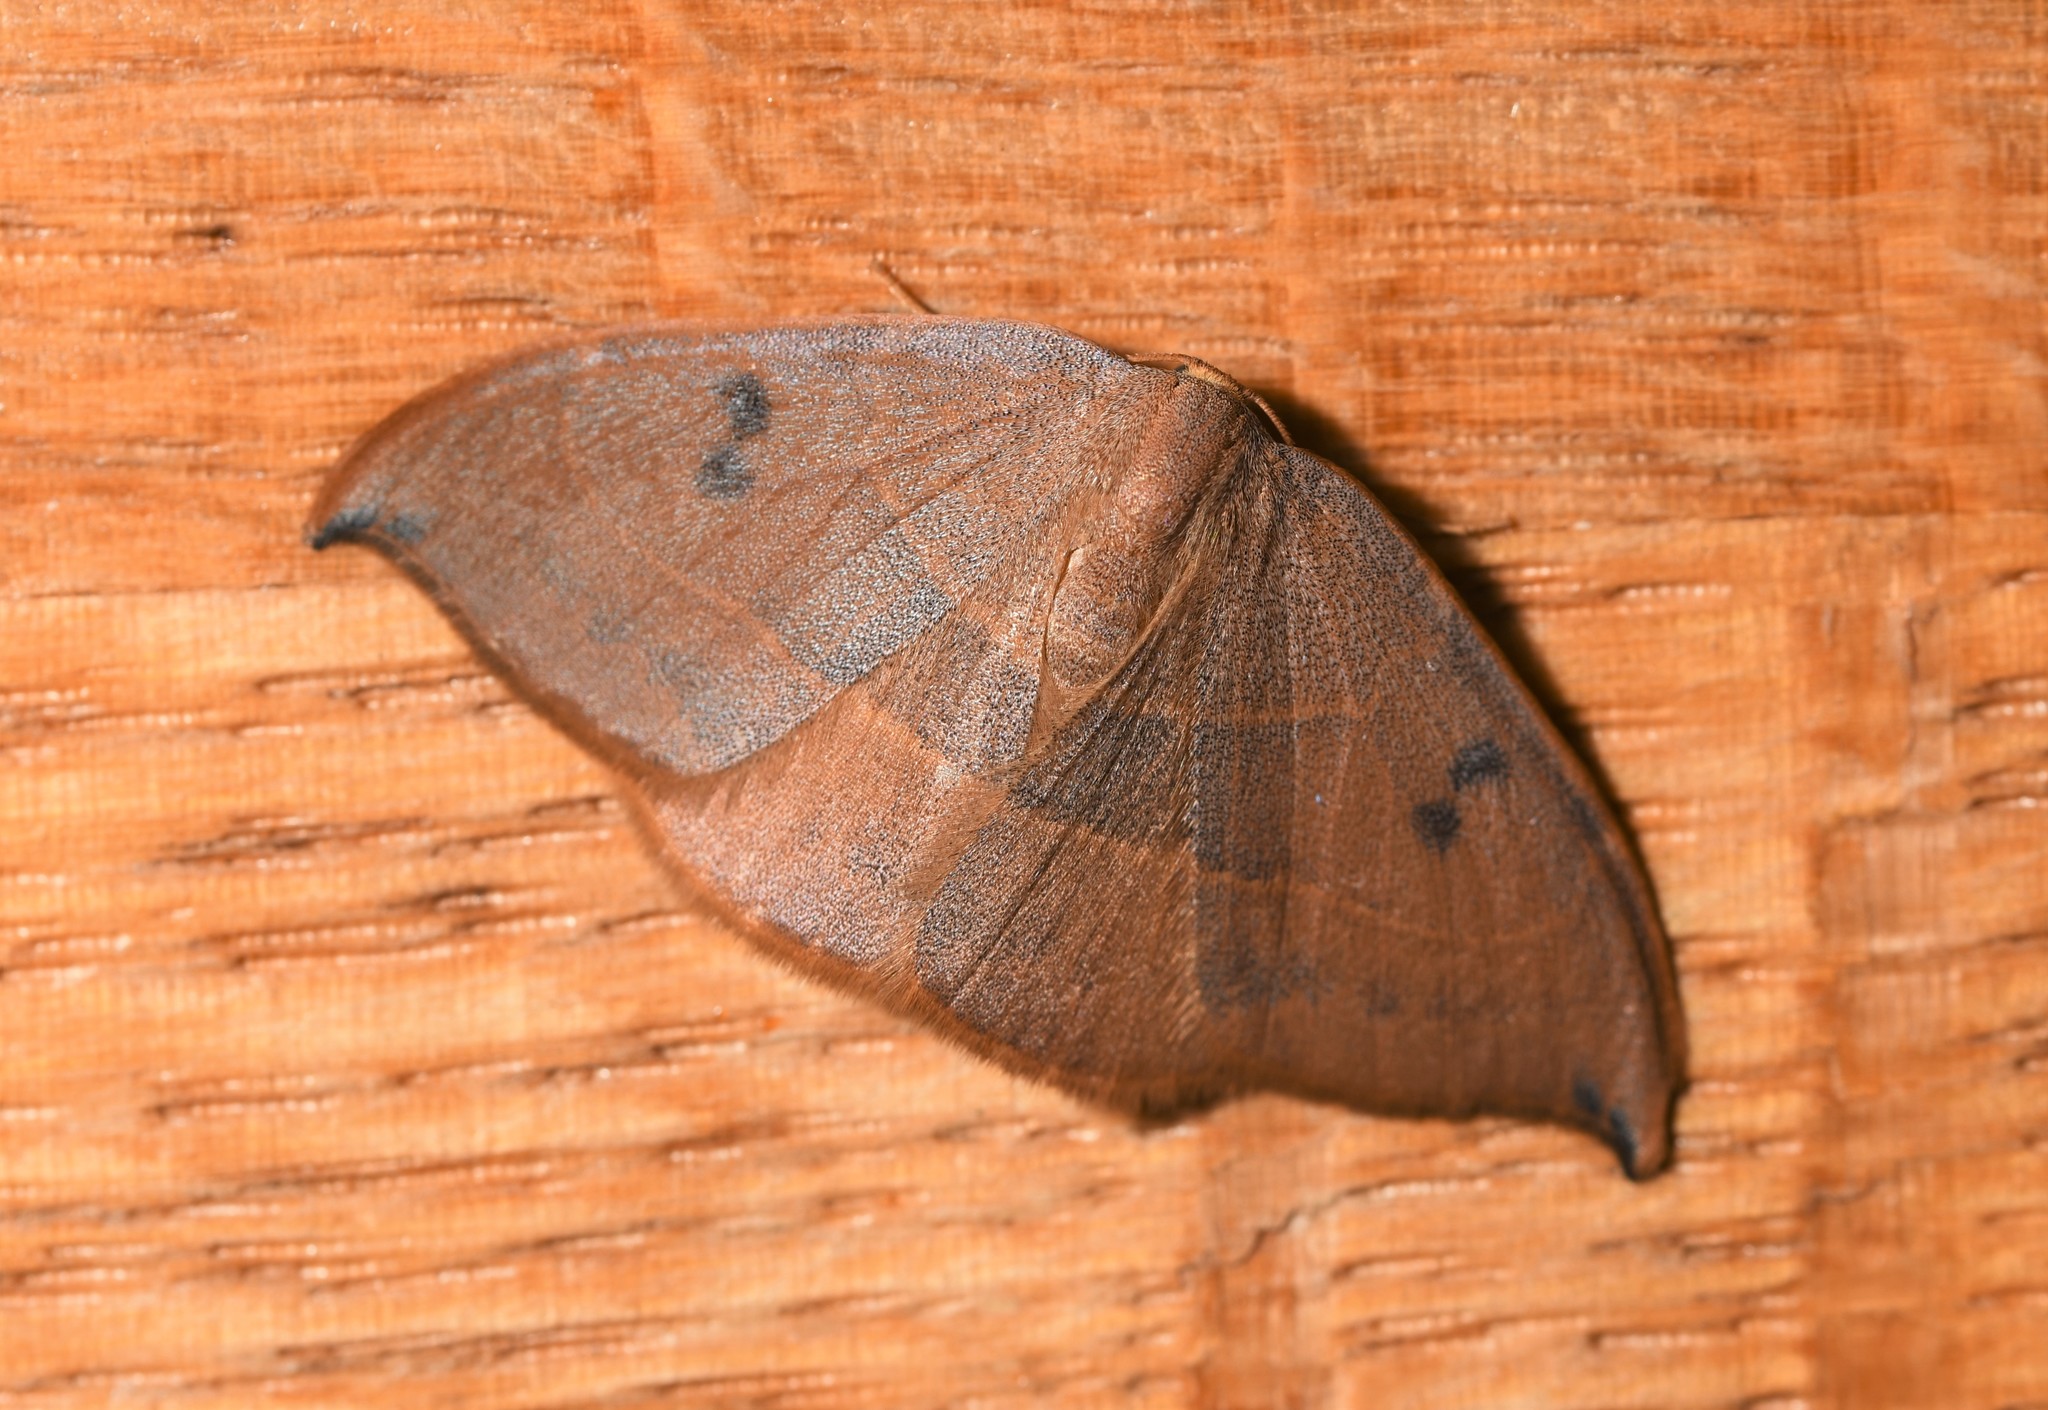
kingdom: Animalia
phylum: Arthropoda
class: Insecta
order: Lepidoptera
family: Drepanidae
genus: Watsonalla
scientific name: Watsonalla uncinula
